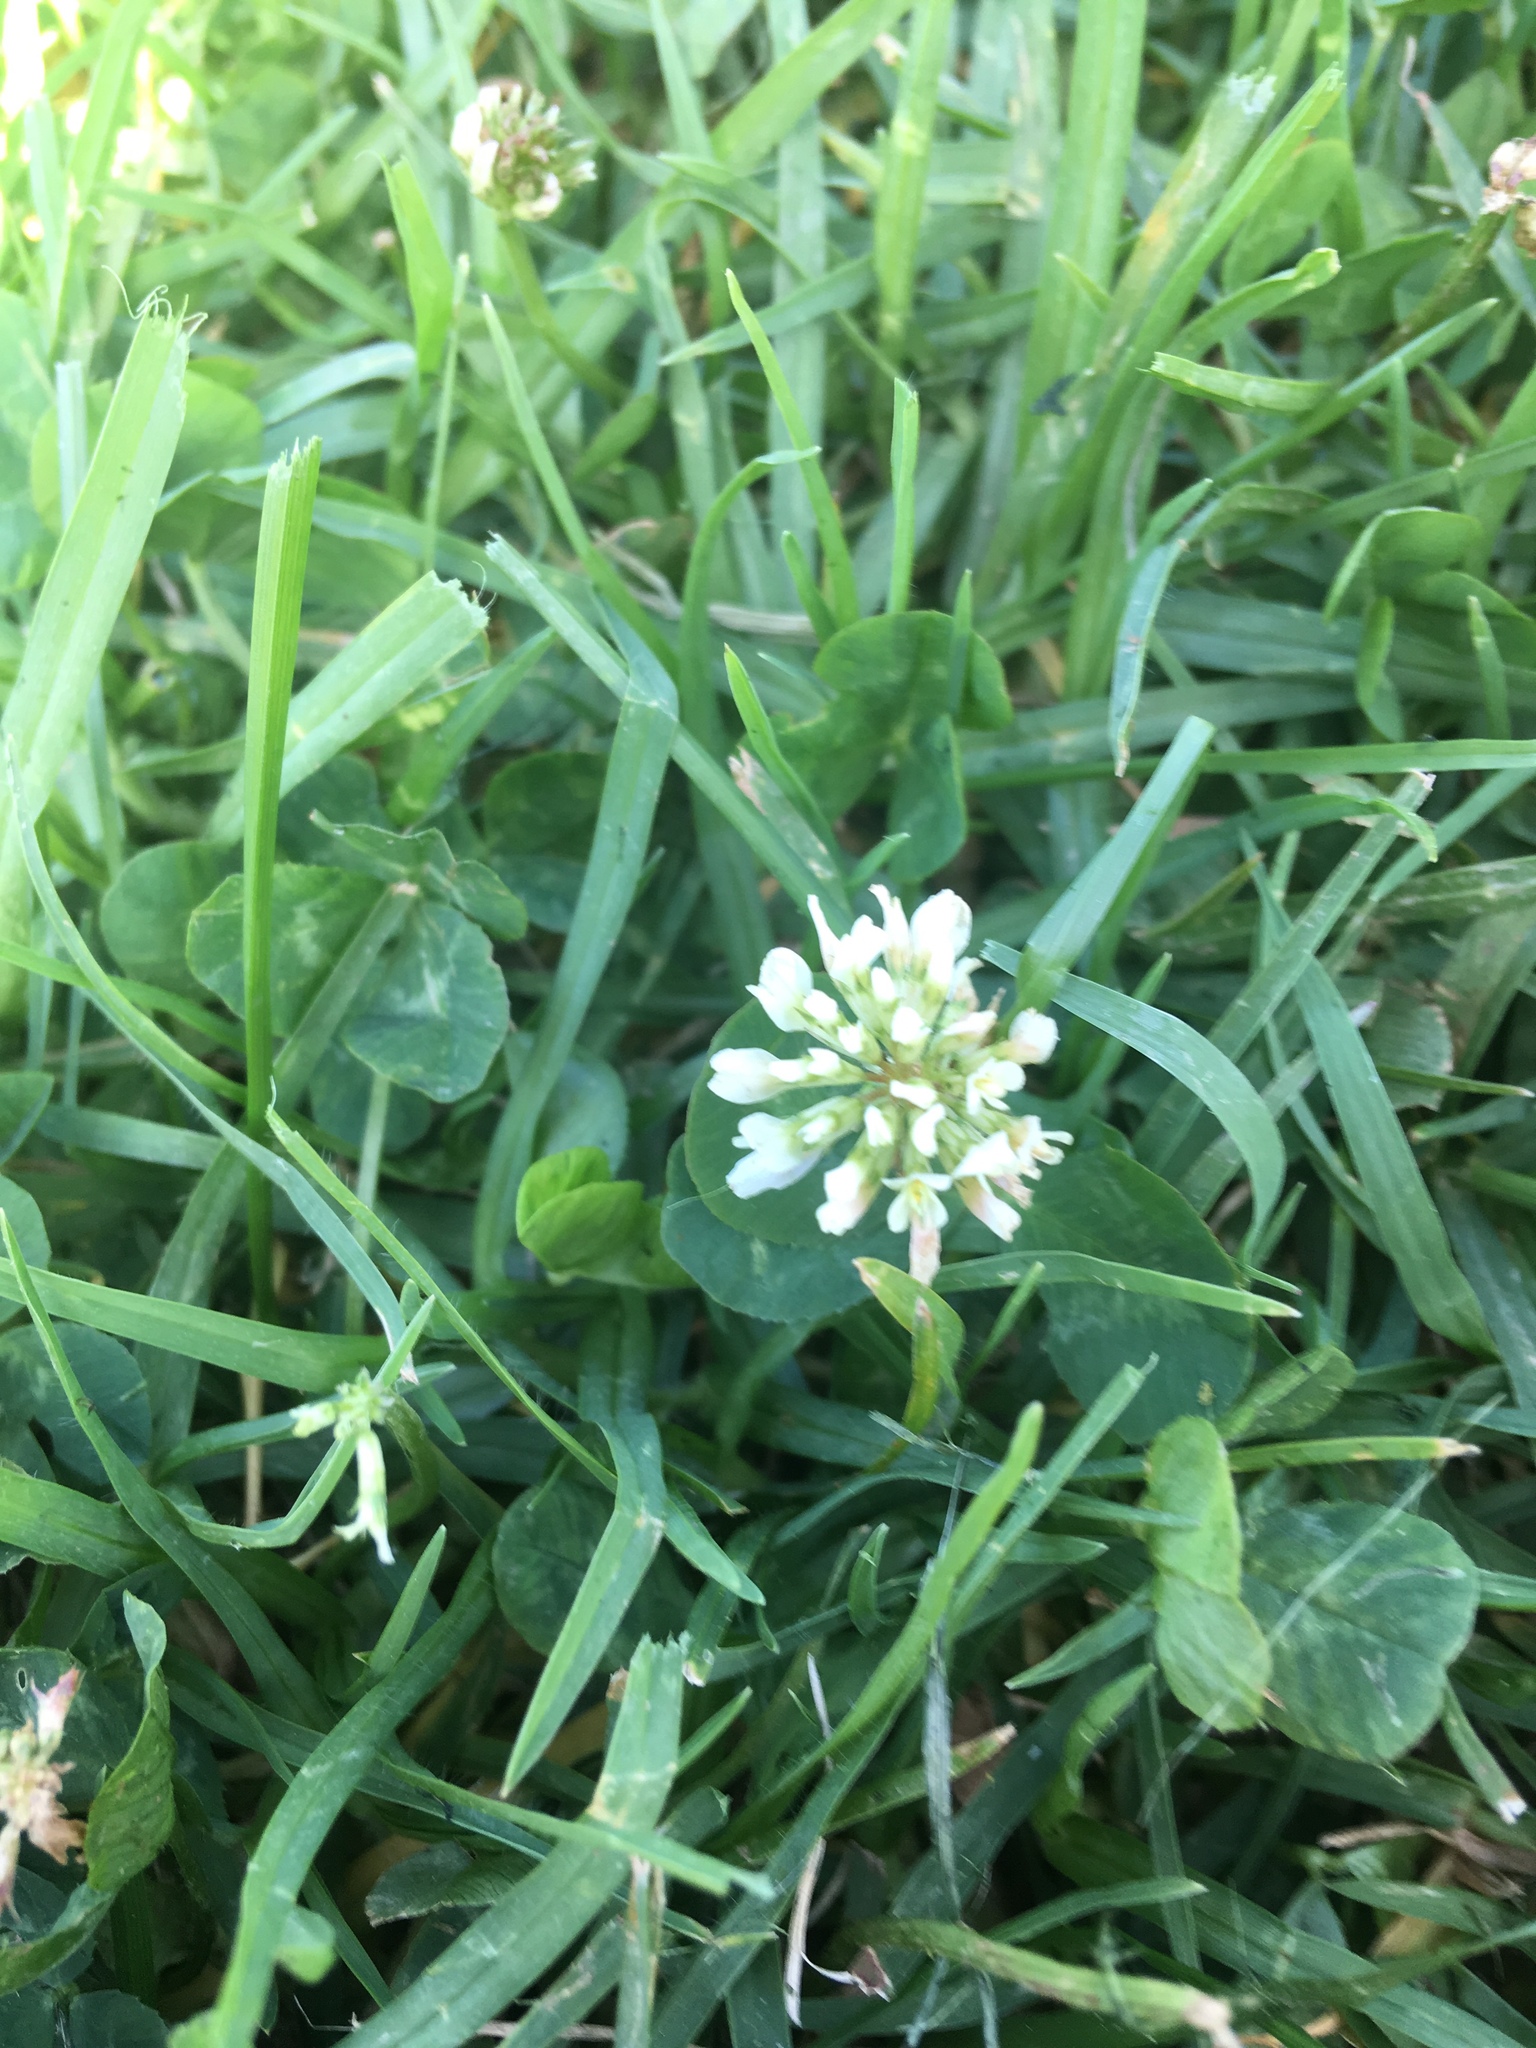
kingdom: Plantae
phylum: Tracheophyta
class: Magnoliopsida
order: Fabales
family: Fabaceae
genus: Trifolium
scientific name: Trifolium repens
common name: White clover
